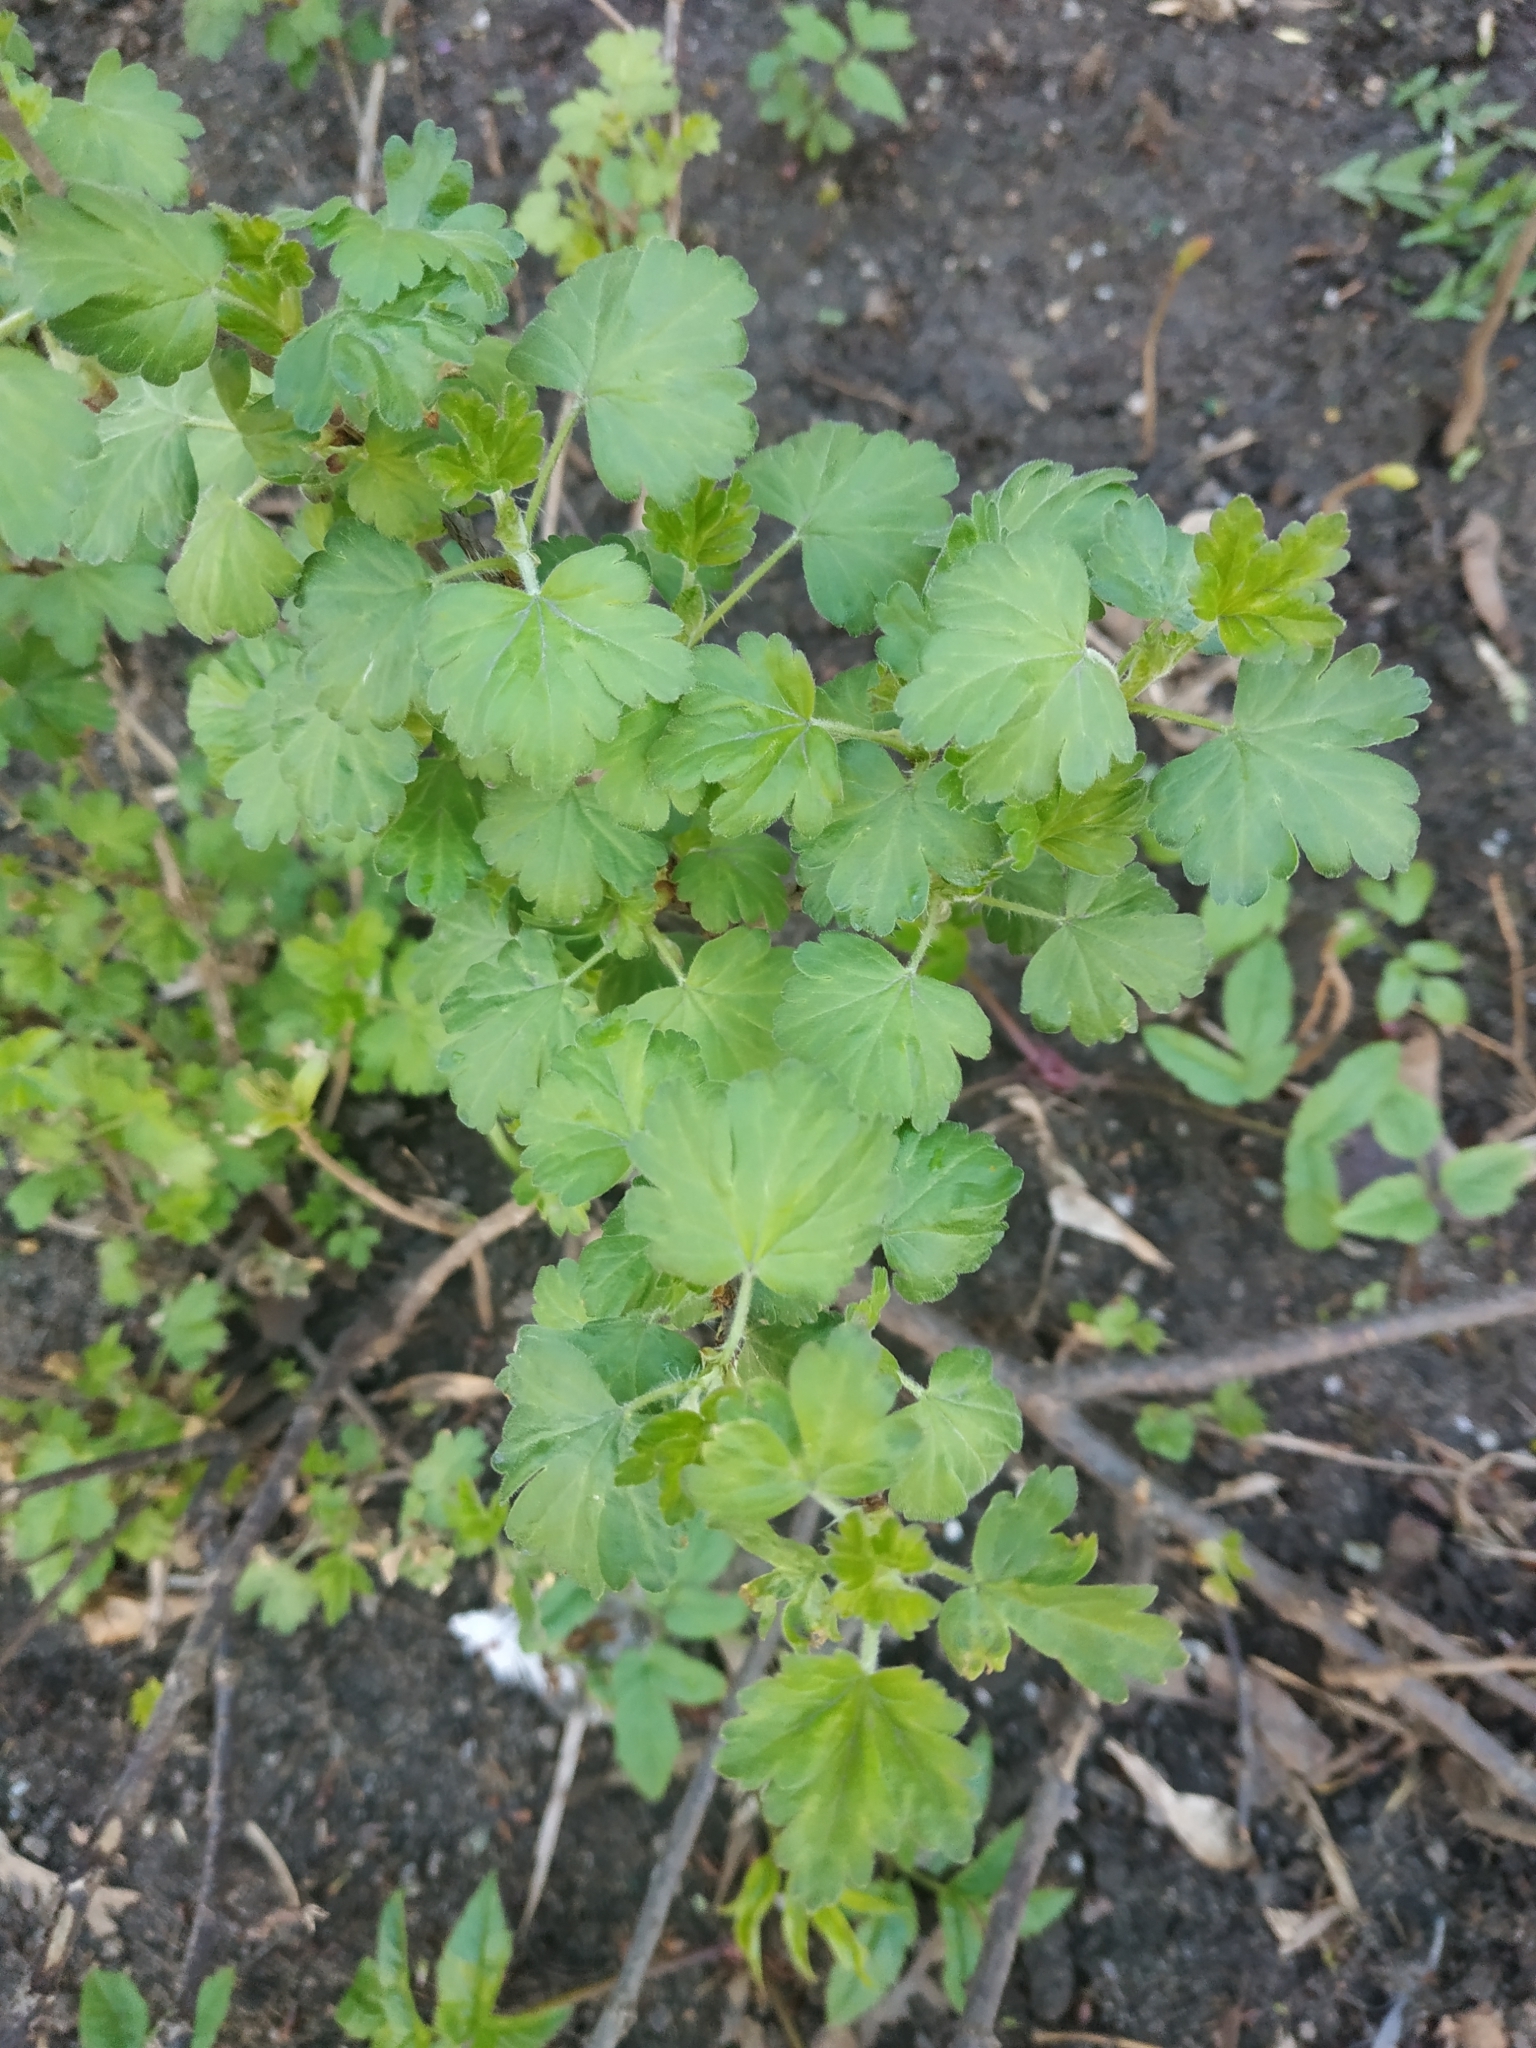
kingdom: Plantae
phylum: Tracheophyta
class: Magnoliopsida
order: Saxifragales
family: Grossulariaceae
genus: Ribes
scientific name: Ribes uva-crispa
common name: Gooseberry
